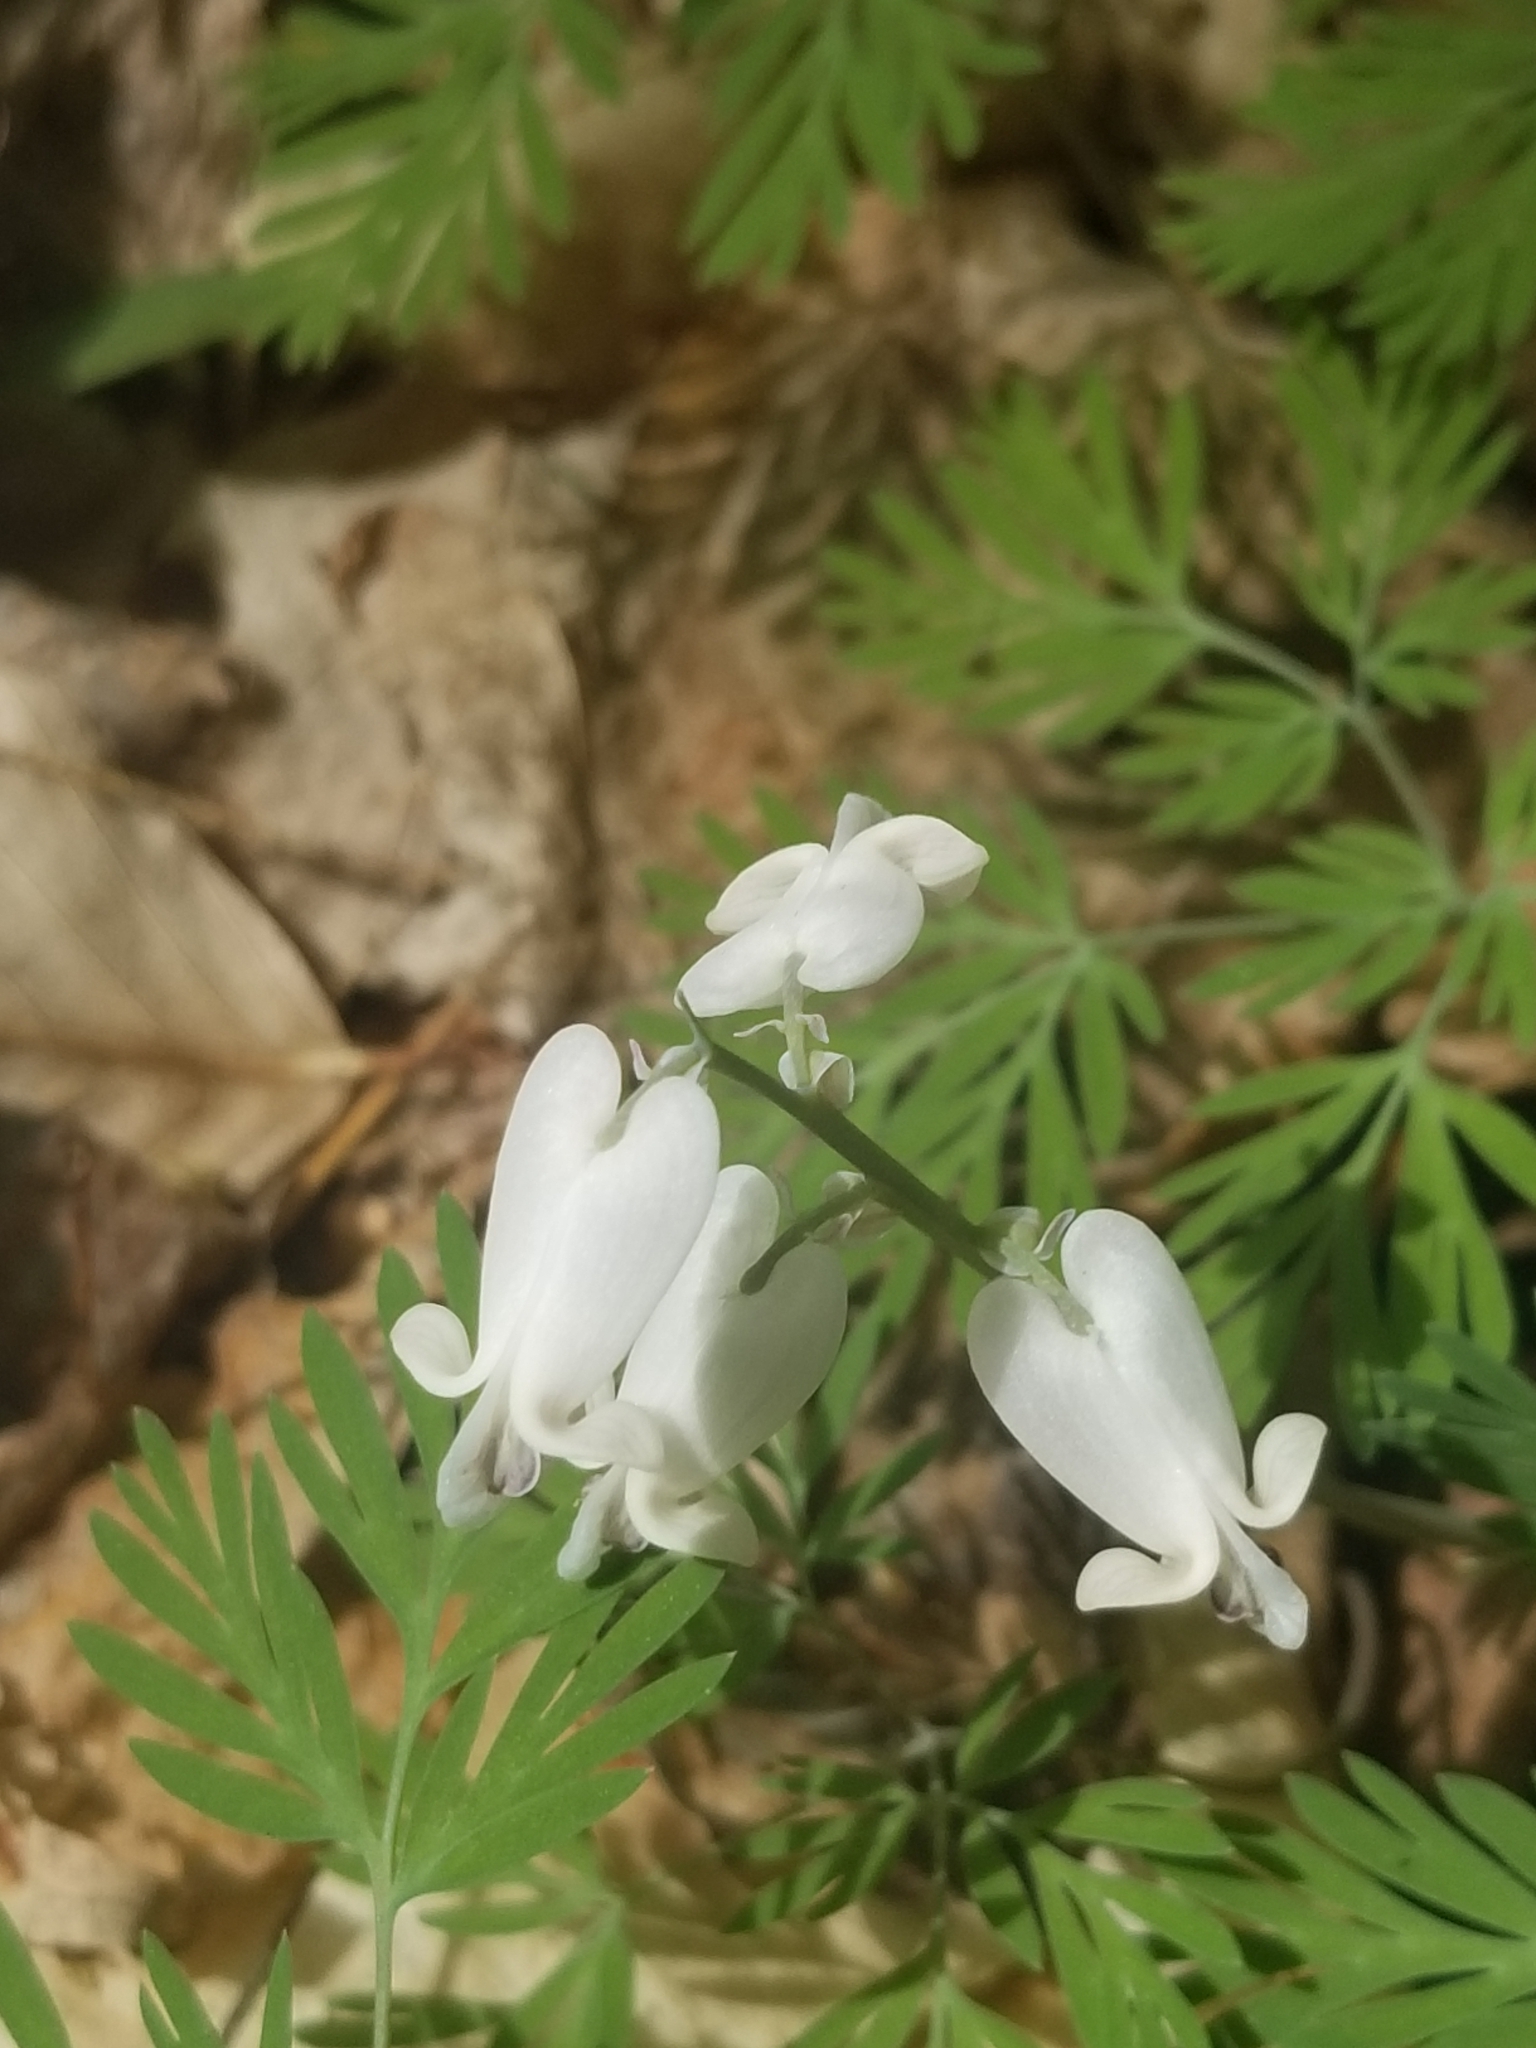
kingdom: Plantae
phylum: Tracheophyta
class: Magnoliopsida
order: Ranunculales
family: Papaveraceae
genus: Dicentra
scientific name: Dicentra canadensis
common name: Squirrel-corn
